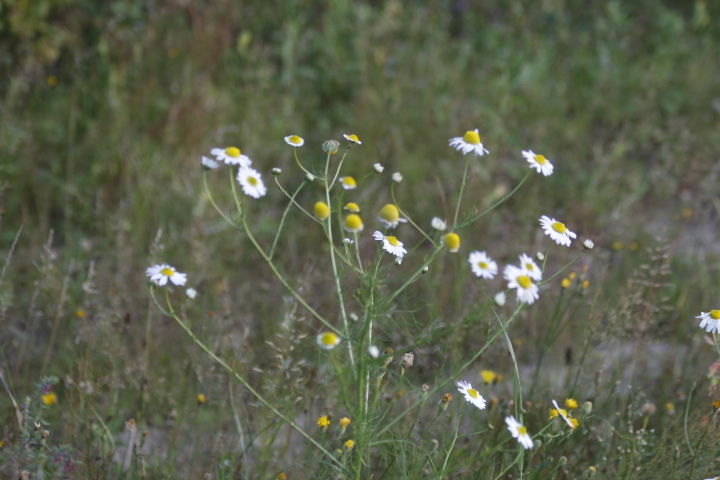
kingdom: Plantae
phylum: Tracheophyta
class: Magnoliopsida
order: Asterales
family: Asteraceae
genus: Tripleurospermum
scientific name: Tripleurospermum inodorum
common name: Scentless mayweed
